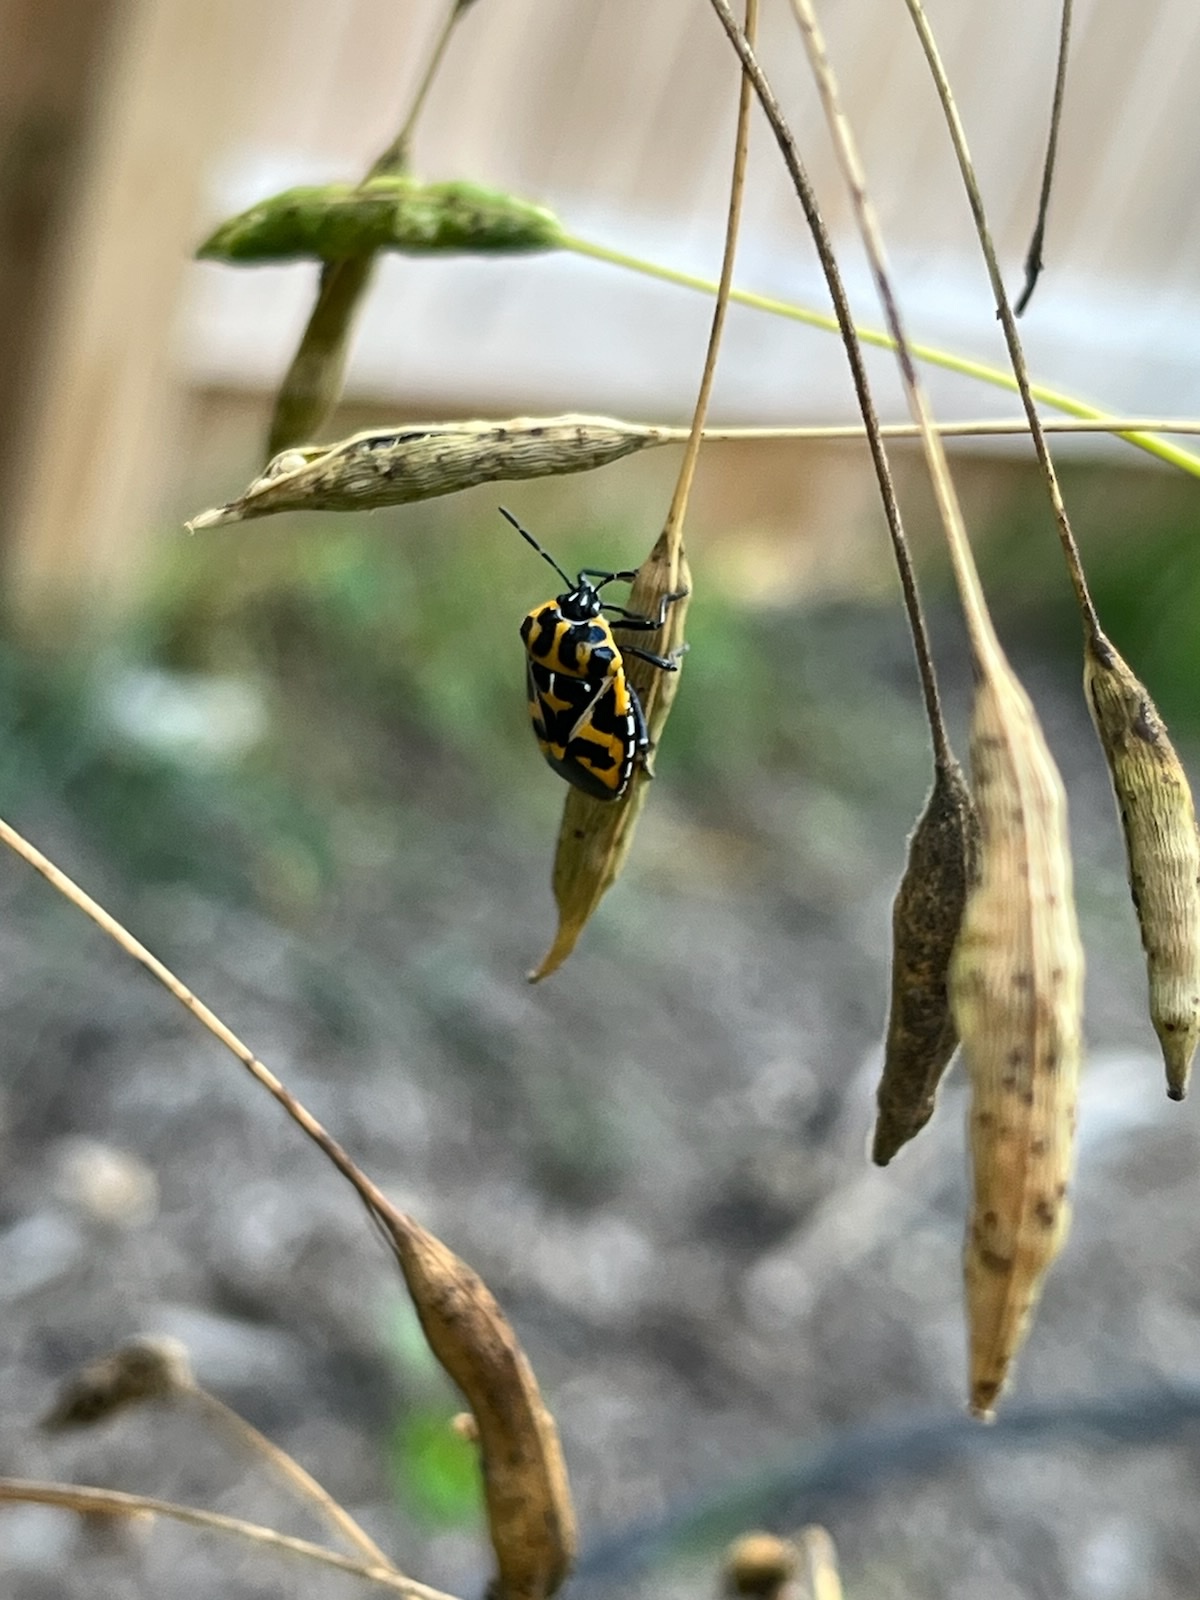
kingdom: Animalia
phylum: Arthropoda
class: Insecta
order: Hemiptera
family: Pentatomidae
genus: Murgantia
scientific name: Murgantia histrionica
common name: Harlequin bug
